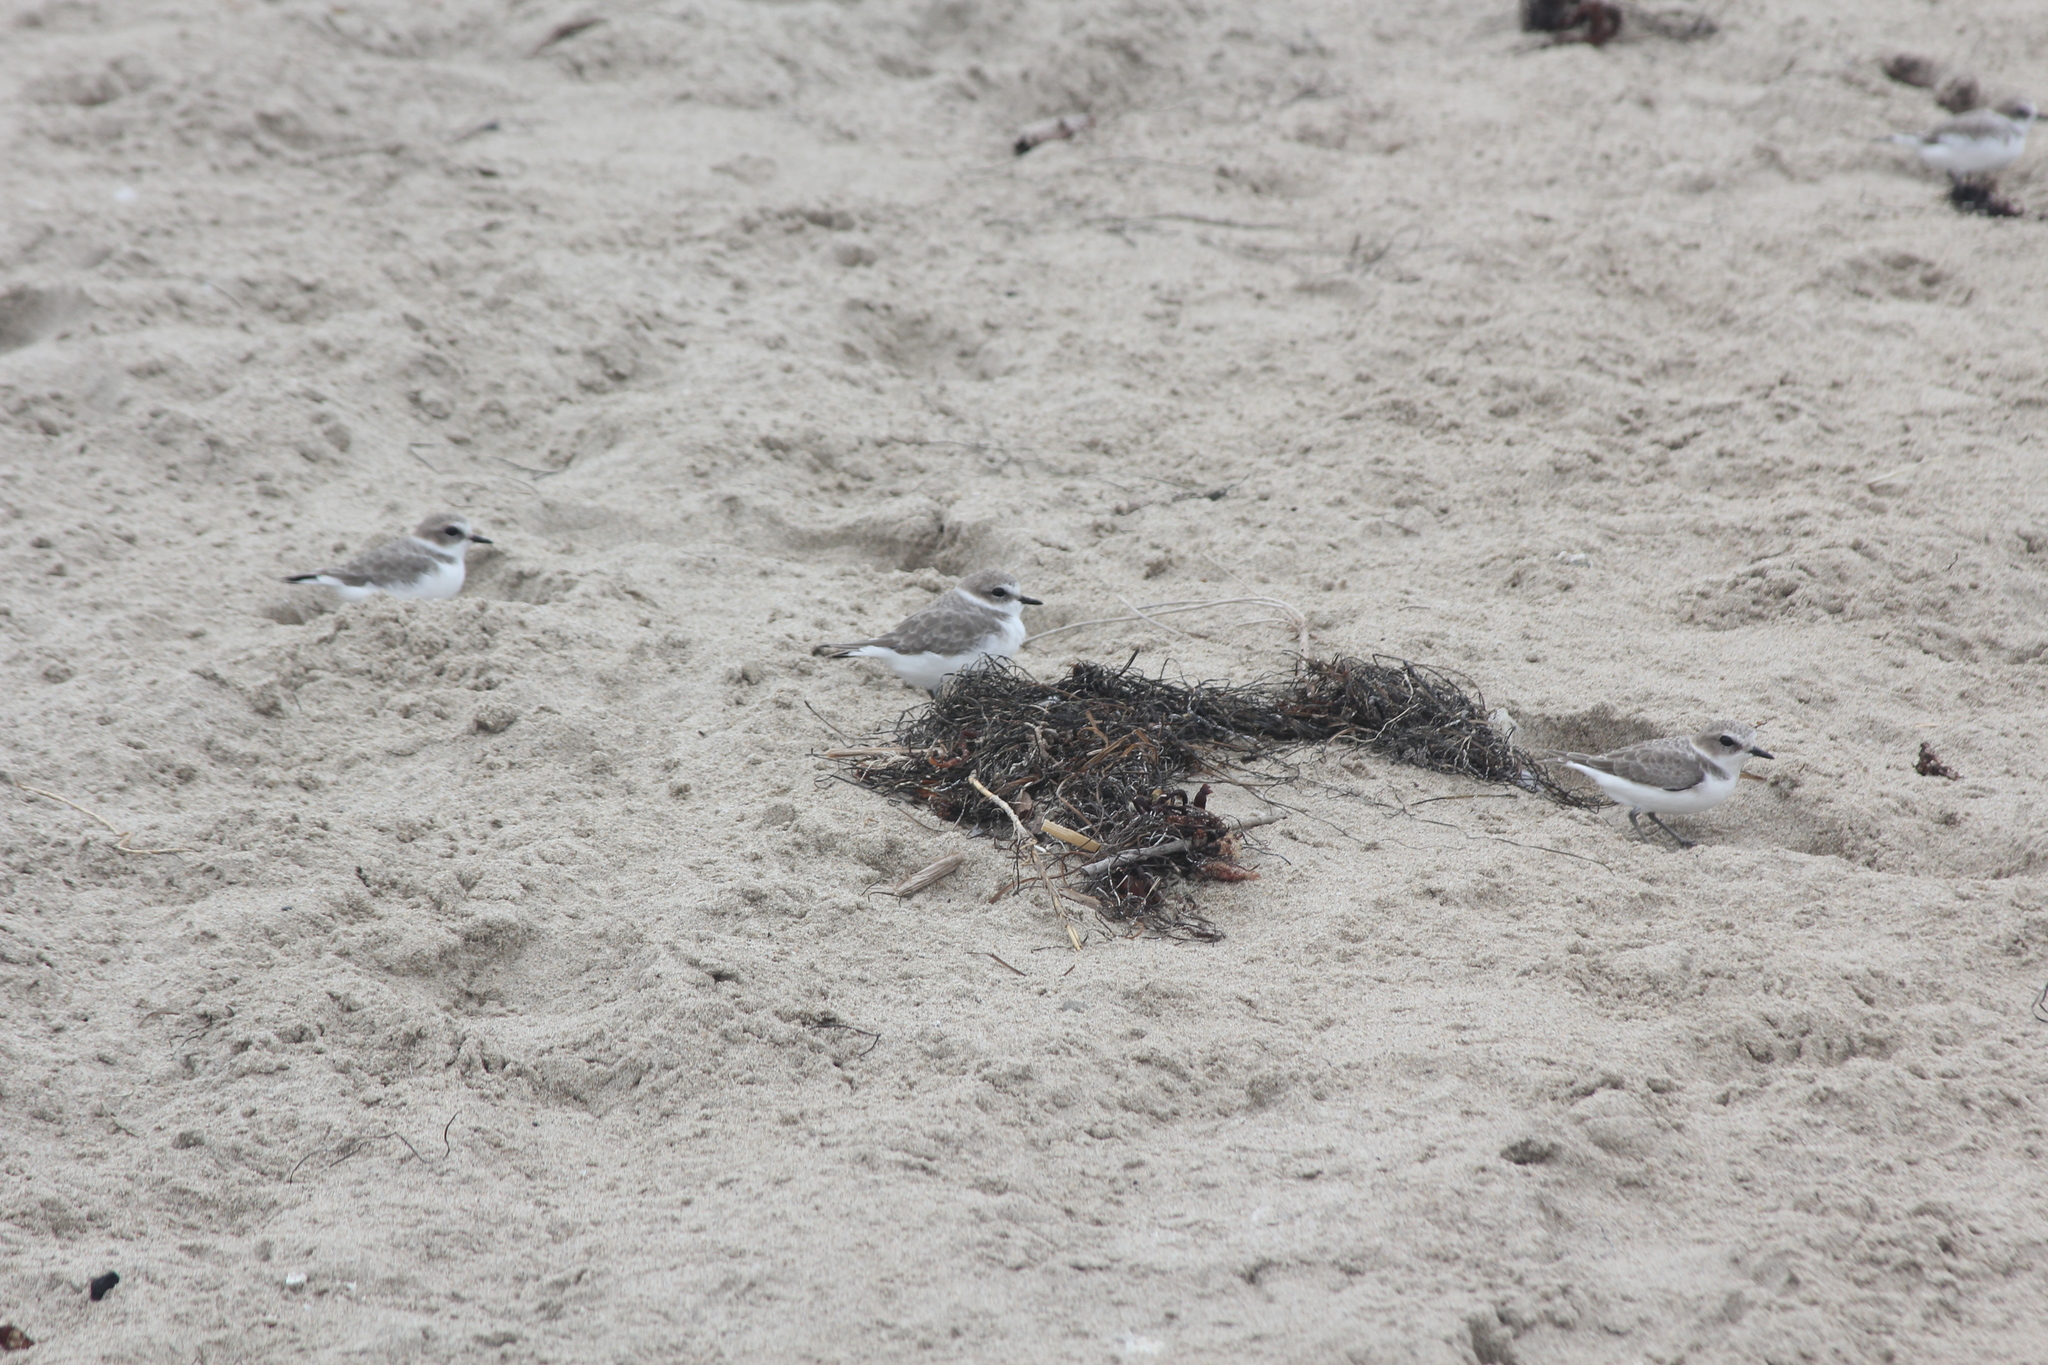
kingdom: Animalia
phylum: Chordata
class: Aves
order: Charadriiformes
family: Charadriidae
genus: Anarhynchus
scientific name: Anarhynchus
